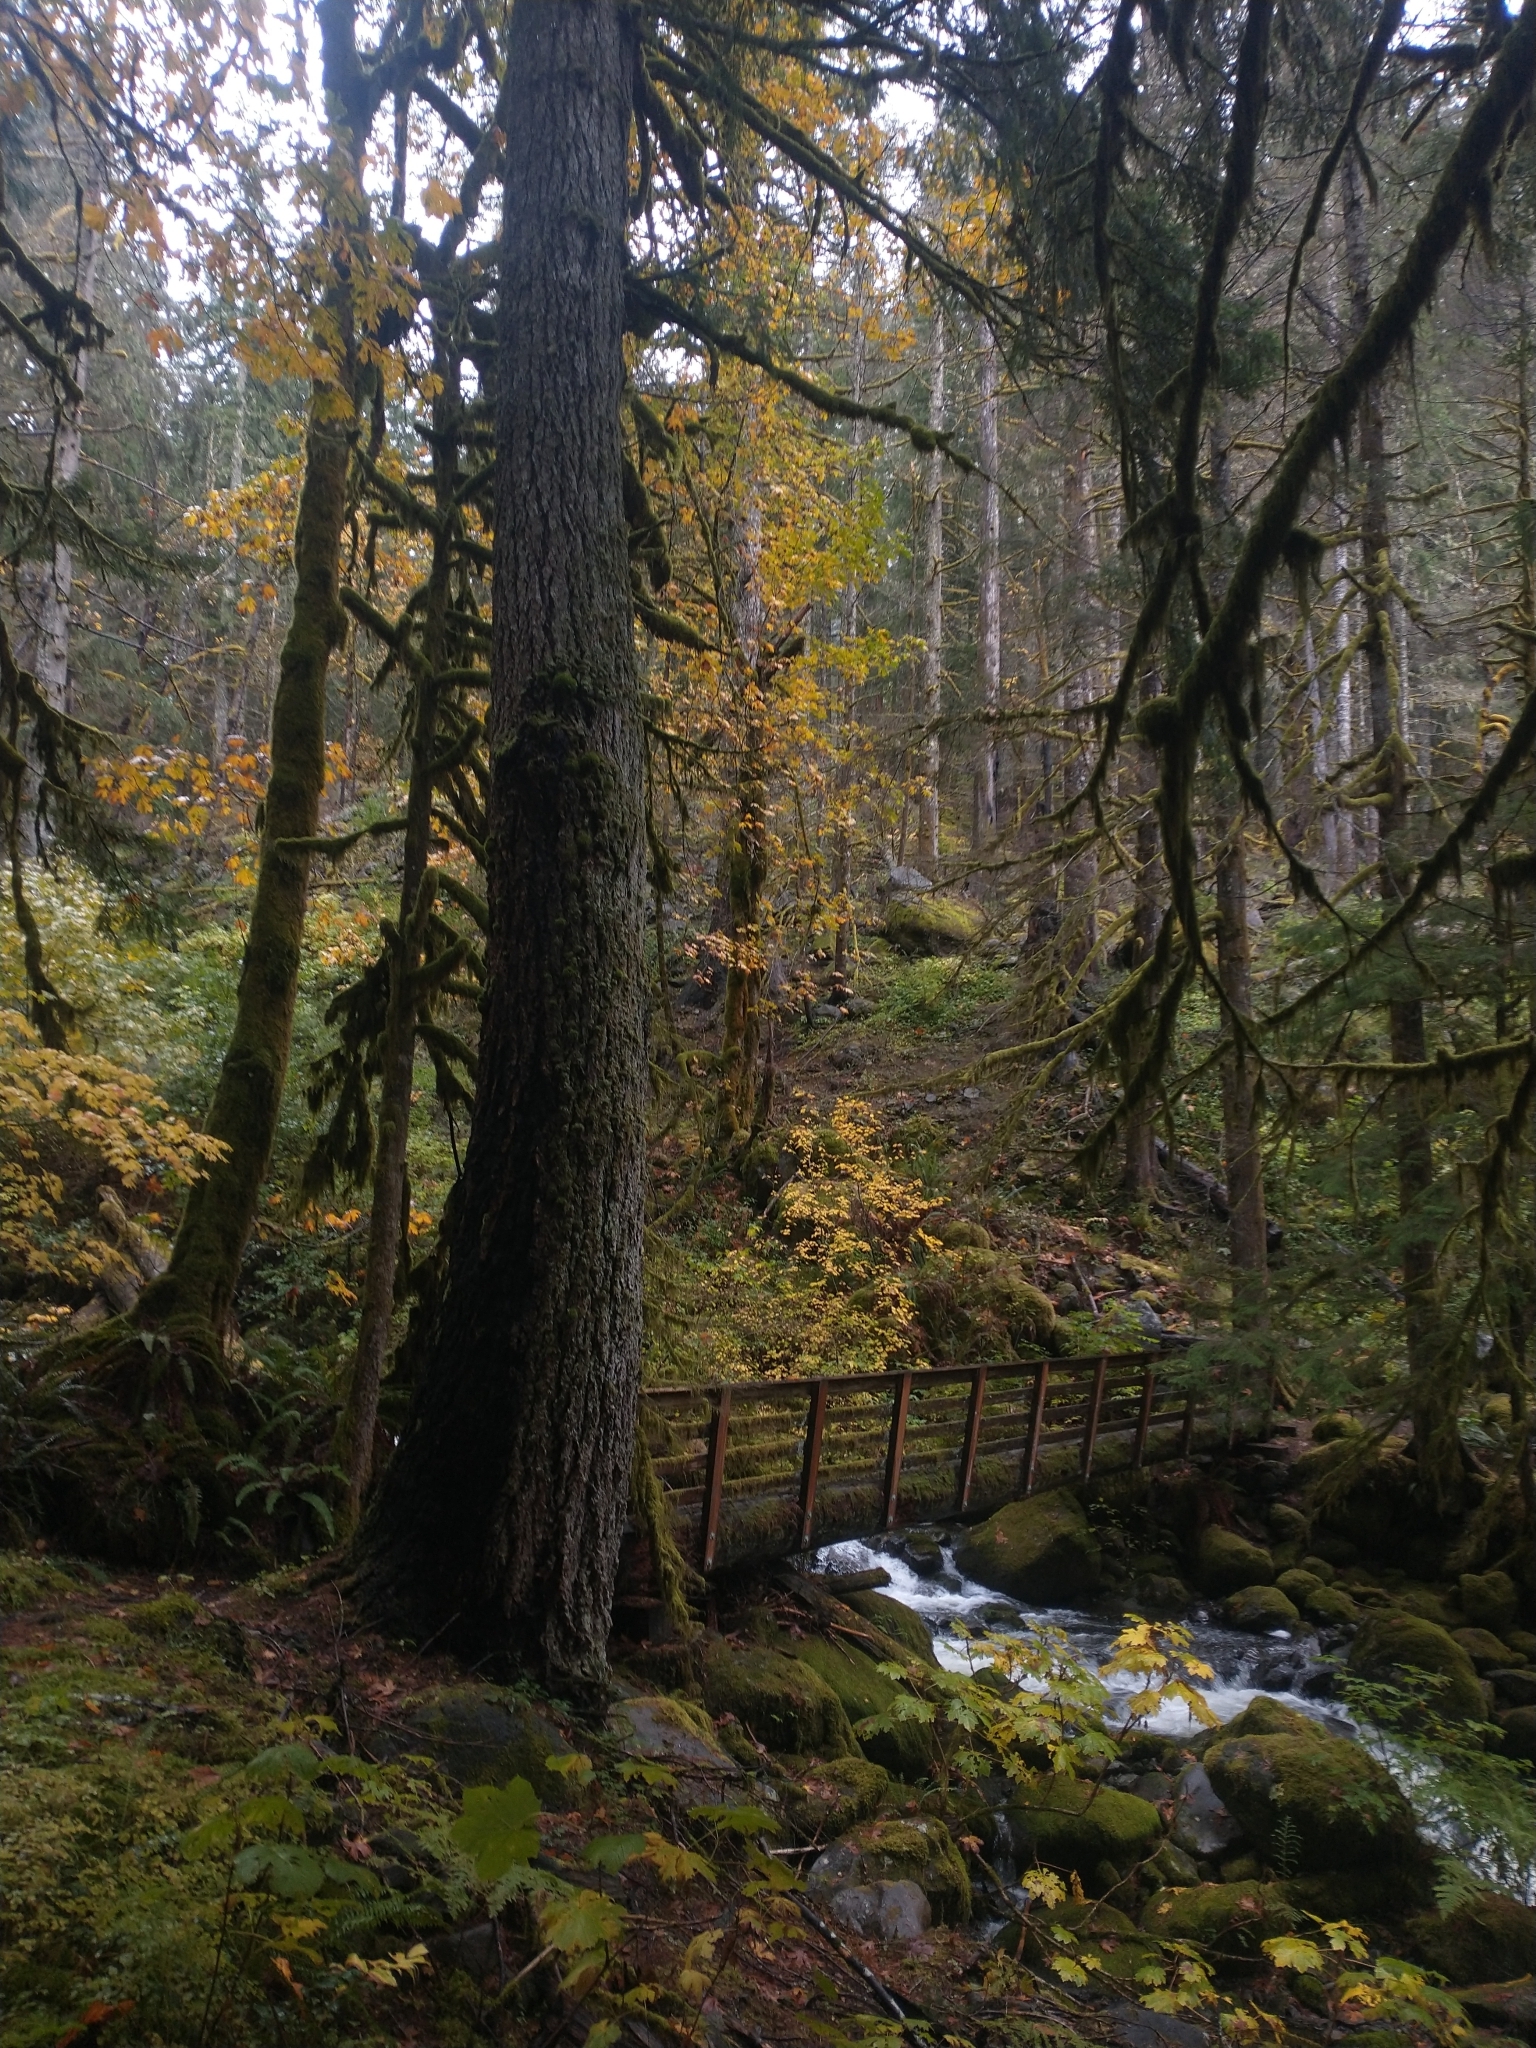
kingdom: Plantae
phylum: Tracheophyta
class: Pinopsida
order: Pinales
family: Pinaceae
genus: Pseudotsuga
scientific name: Pseudotsuga menziesii
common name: Douglas fir
